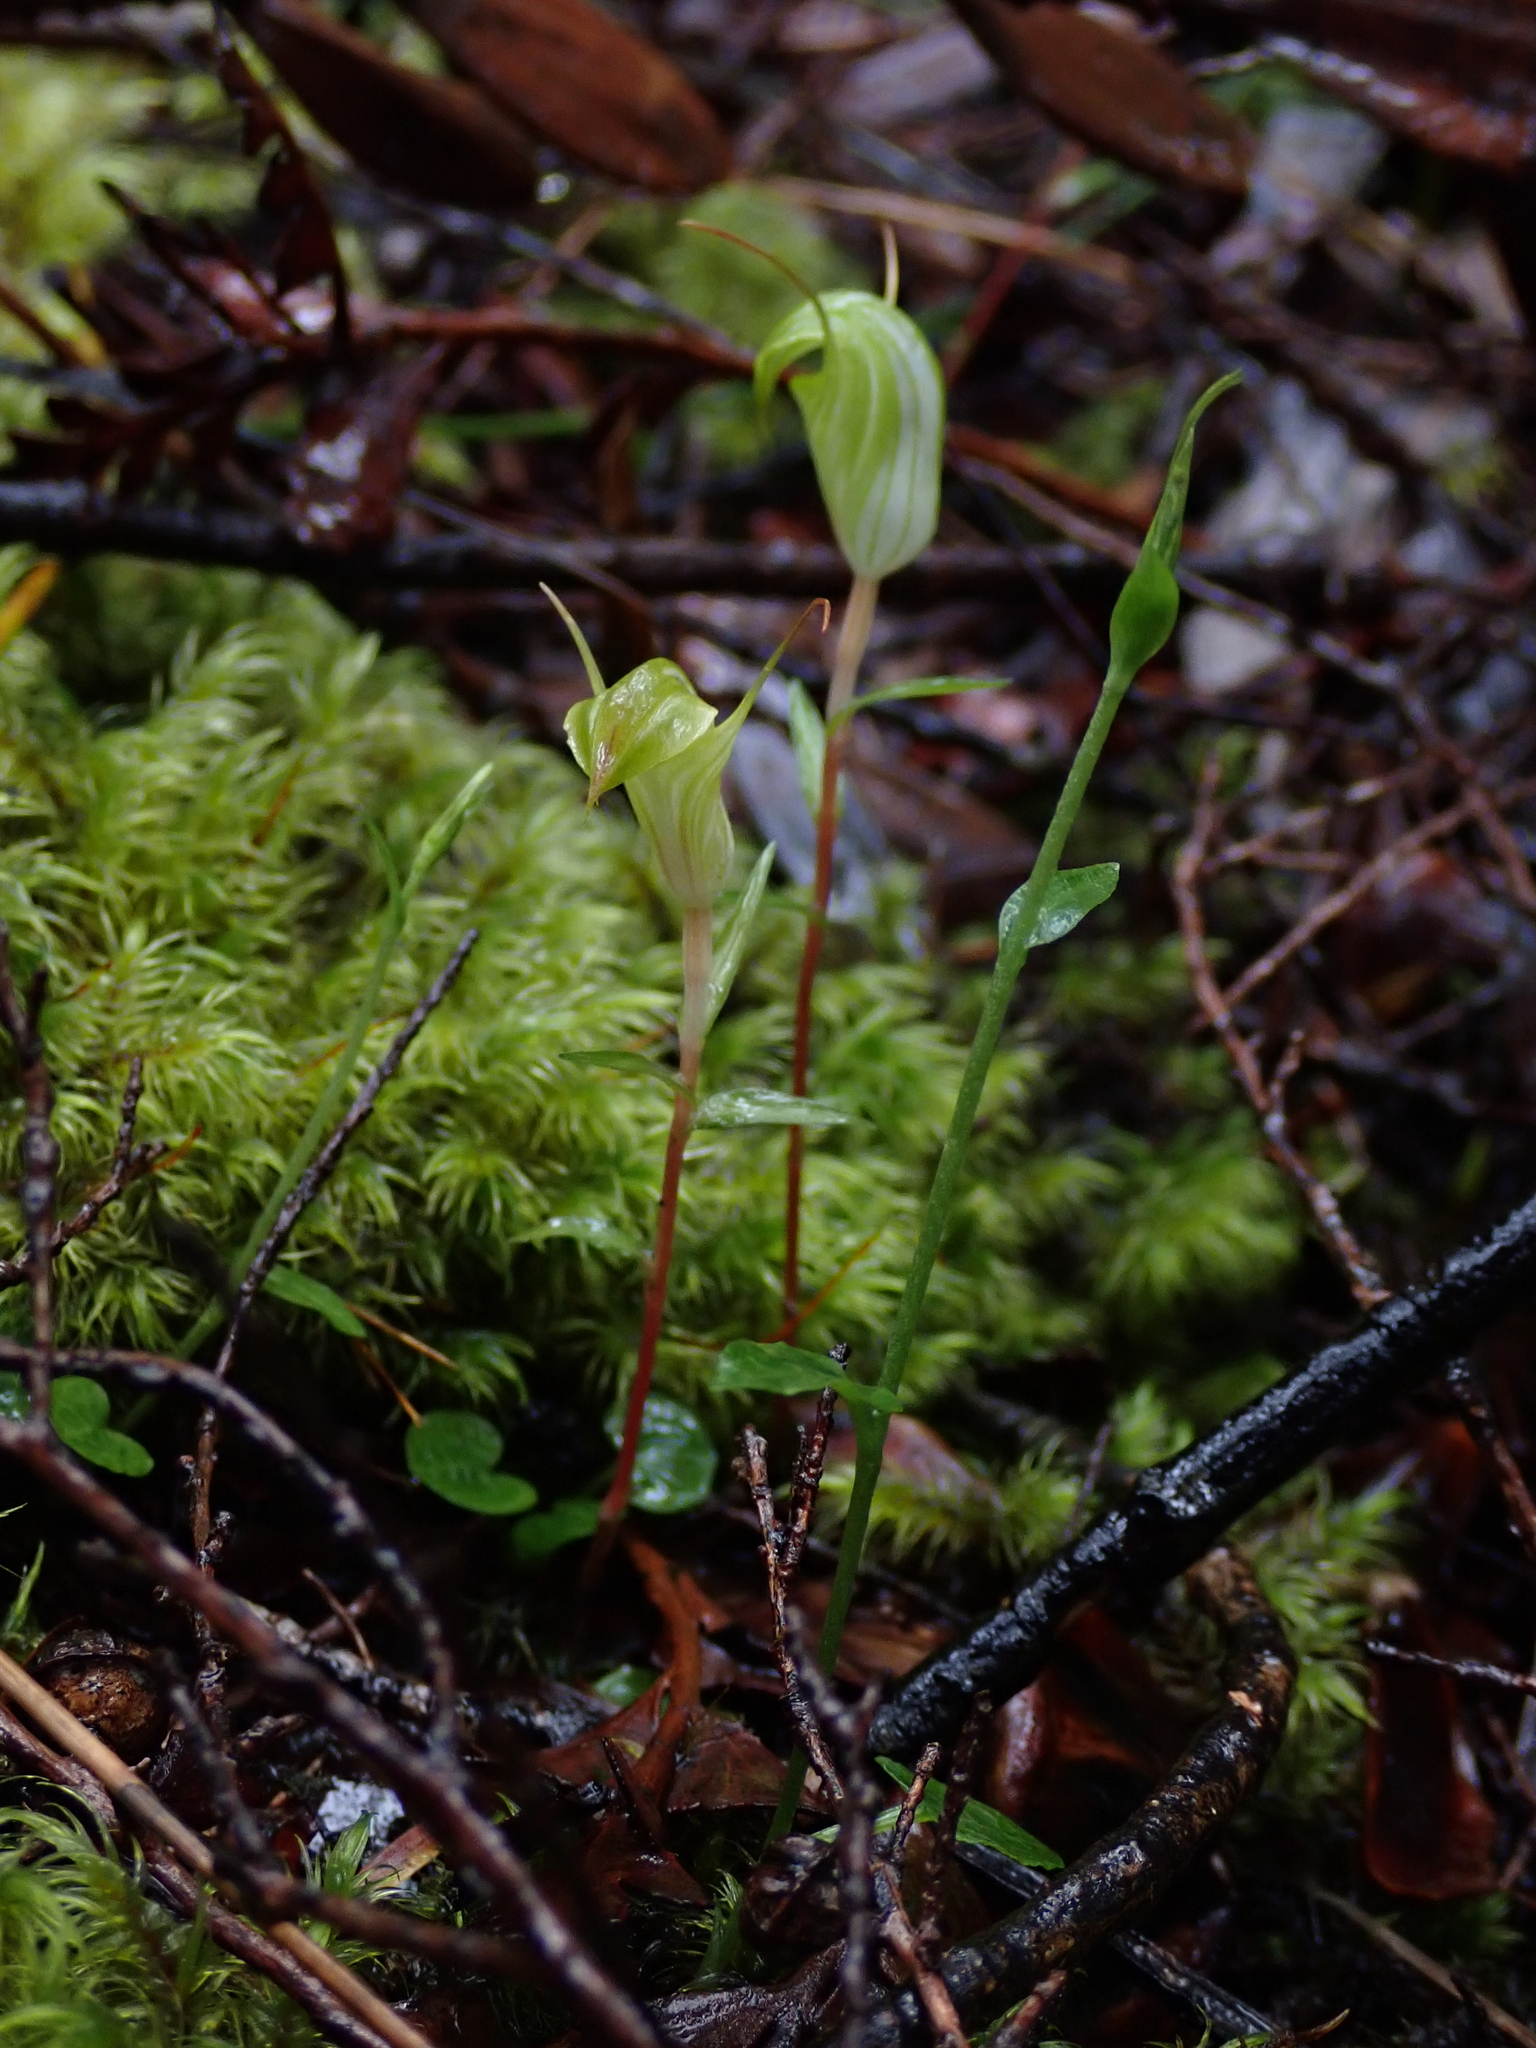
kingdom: Plantae
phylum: Tracheophyta
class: Liliopsida
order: Asparagales
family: Orchidaceae
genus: Pterostylis
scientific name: Pterostylis trullifolia
